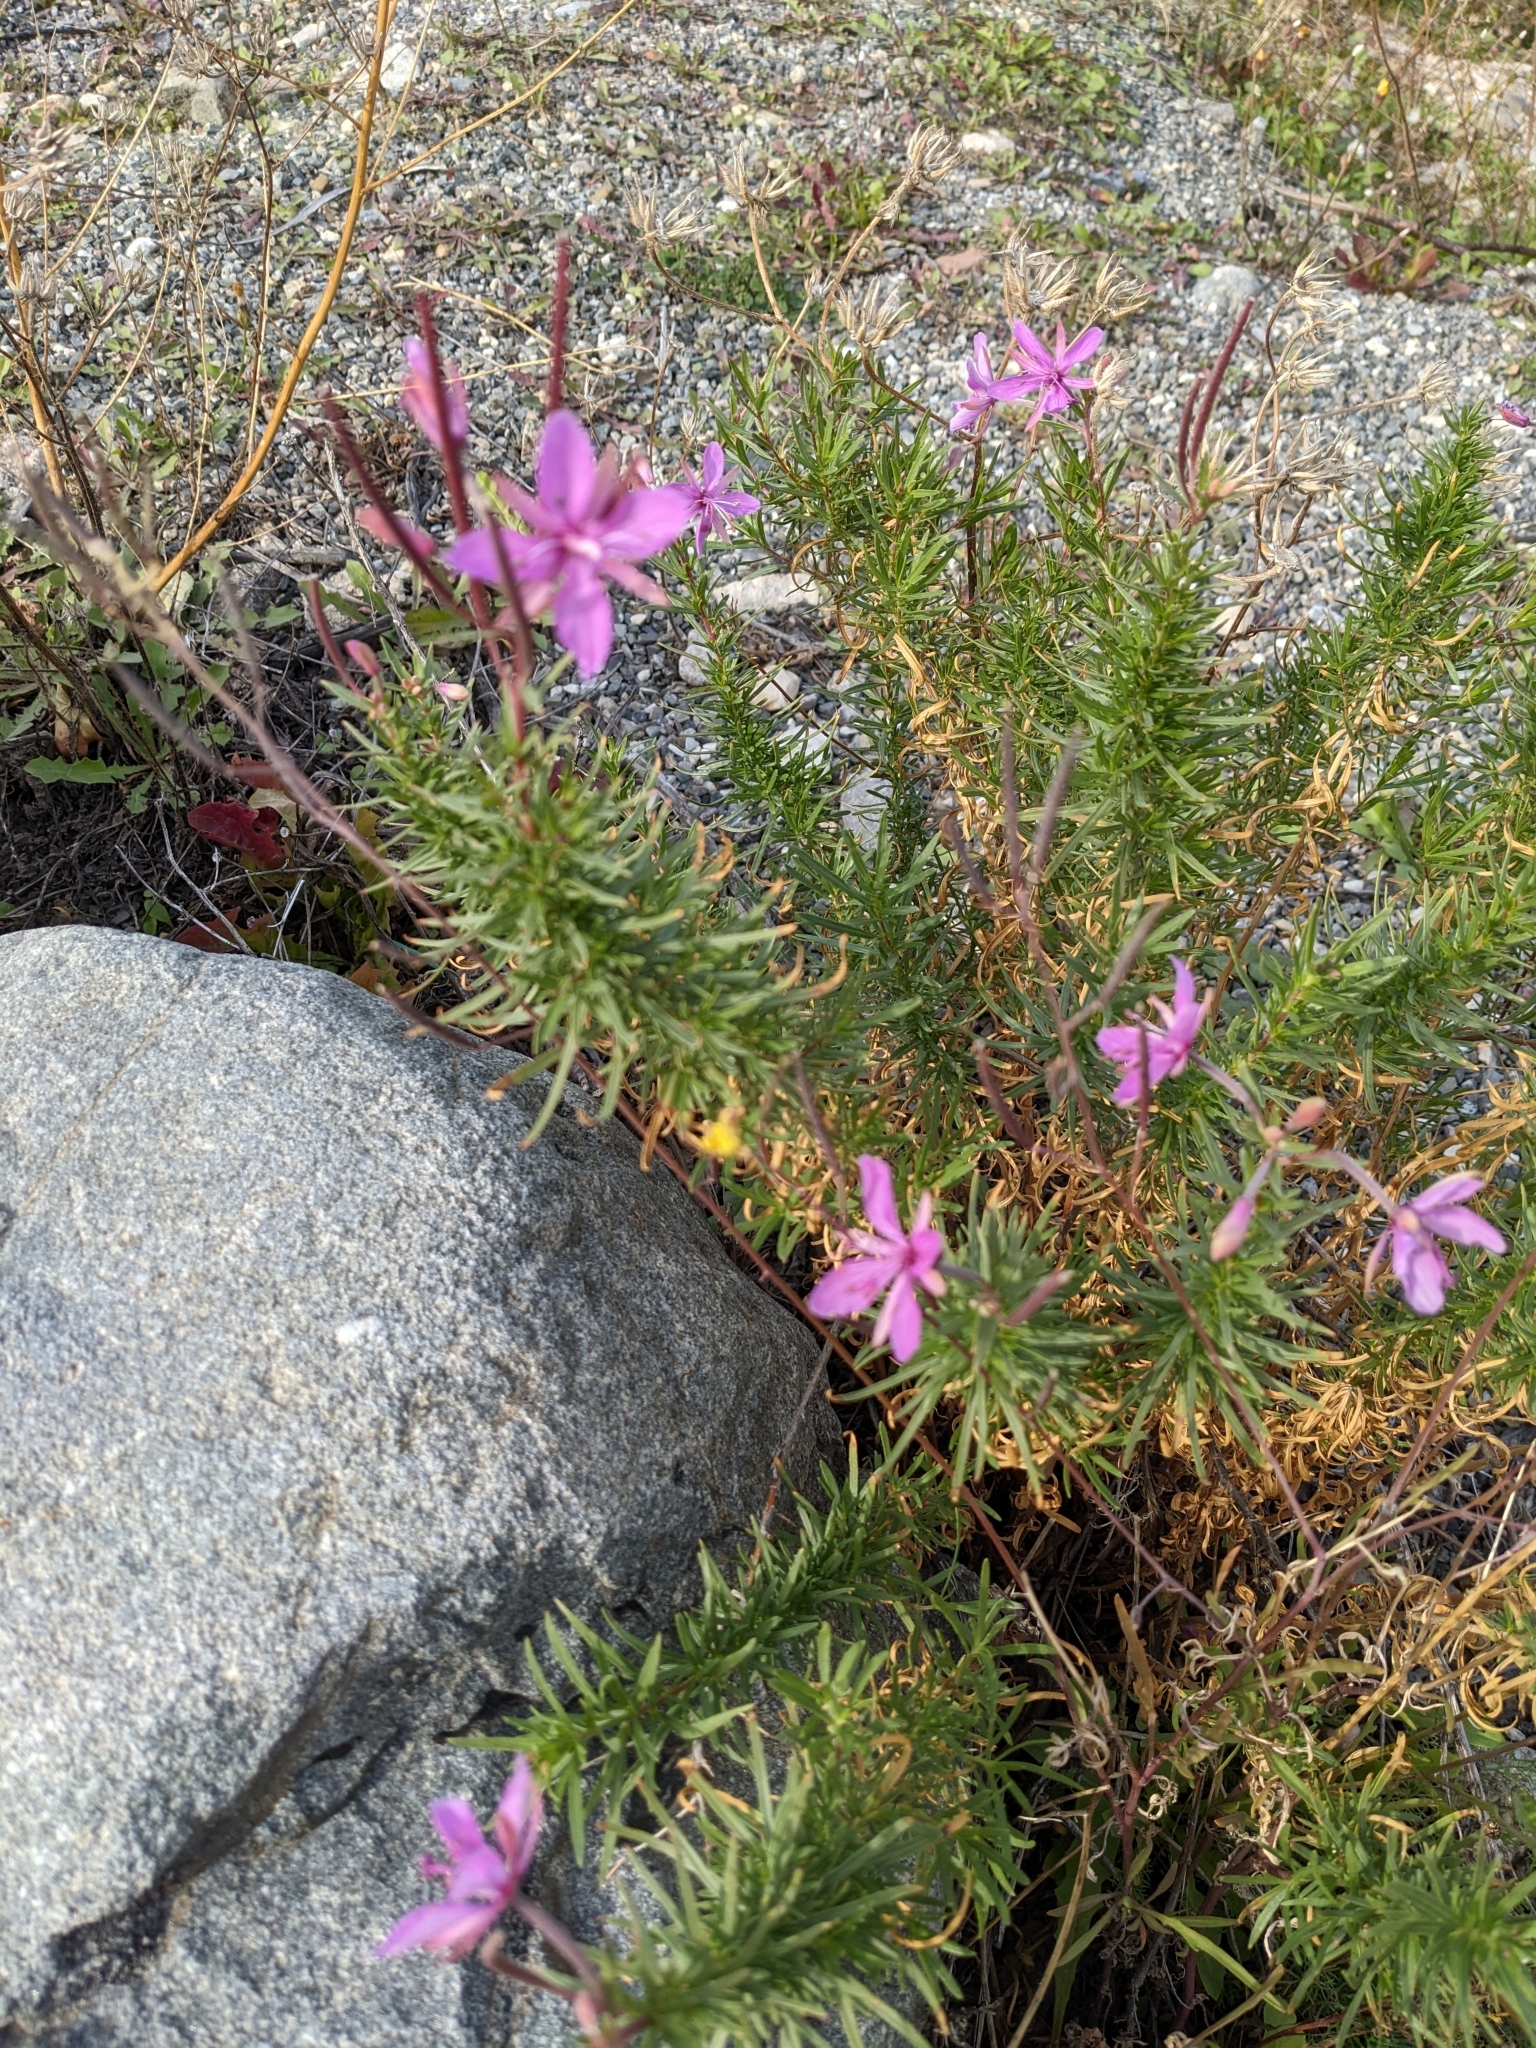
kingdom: Plantae
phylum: Tracheophyta
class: Magnoliopsida
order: Myrtales
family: Onagraceae
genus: Chamaenerion
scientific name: Chamaenerion dodonaei
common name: Rosemary-leaved willowherb
